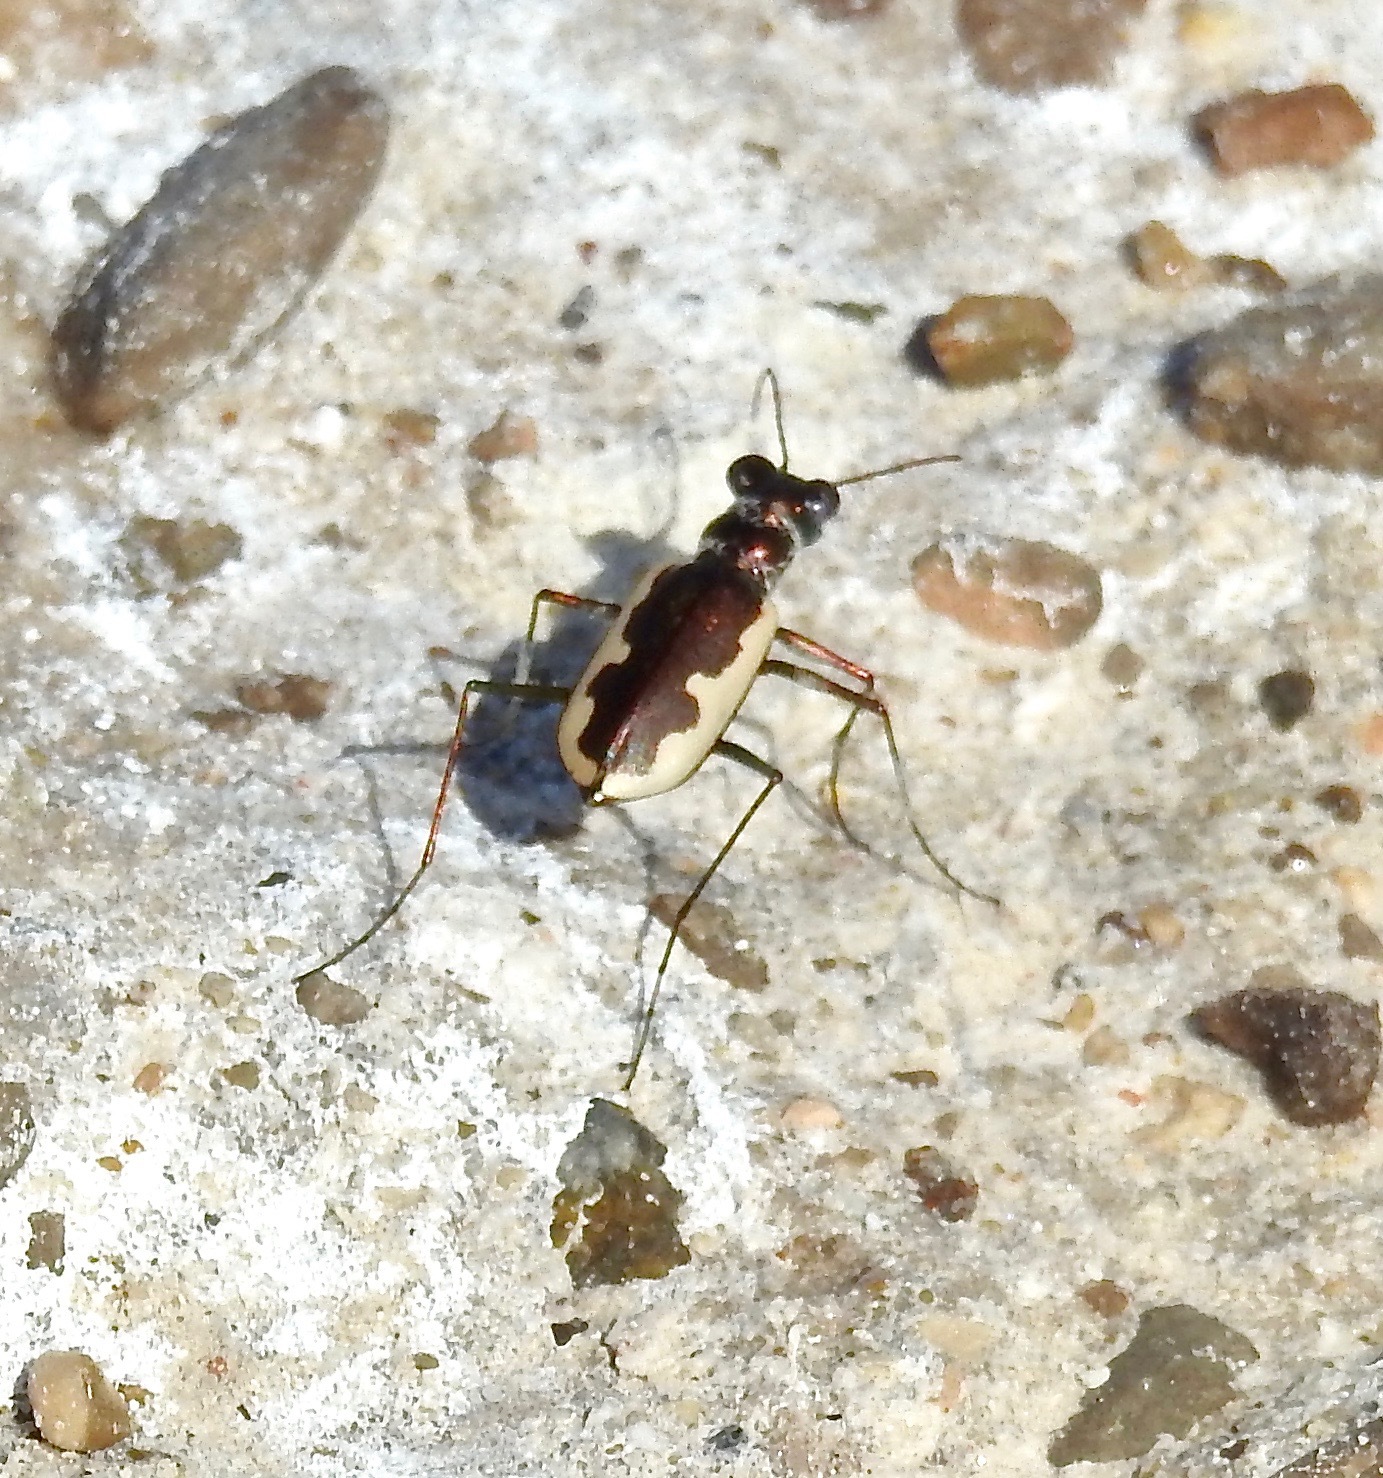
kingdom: Animalia
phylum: Arthropoda
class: Insecta
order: Coleoptera
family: Carabidae
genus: Eunota
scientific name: Eunota circumpicta
